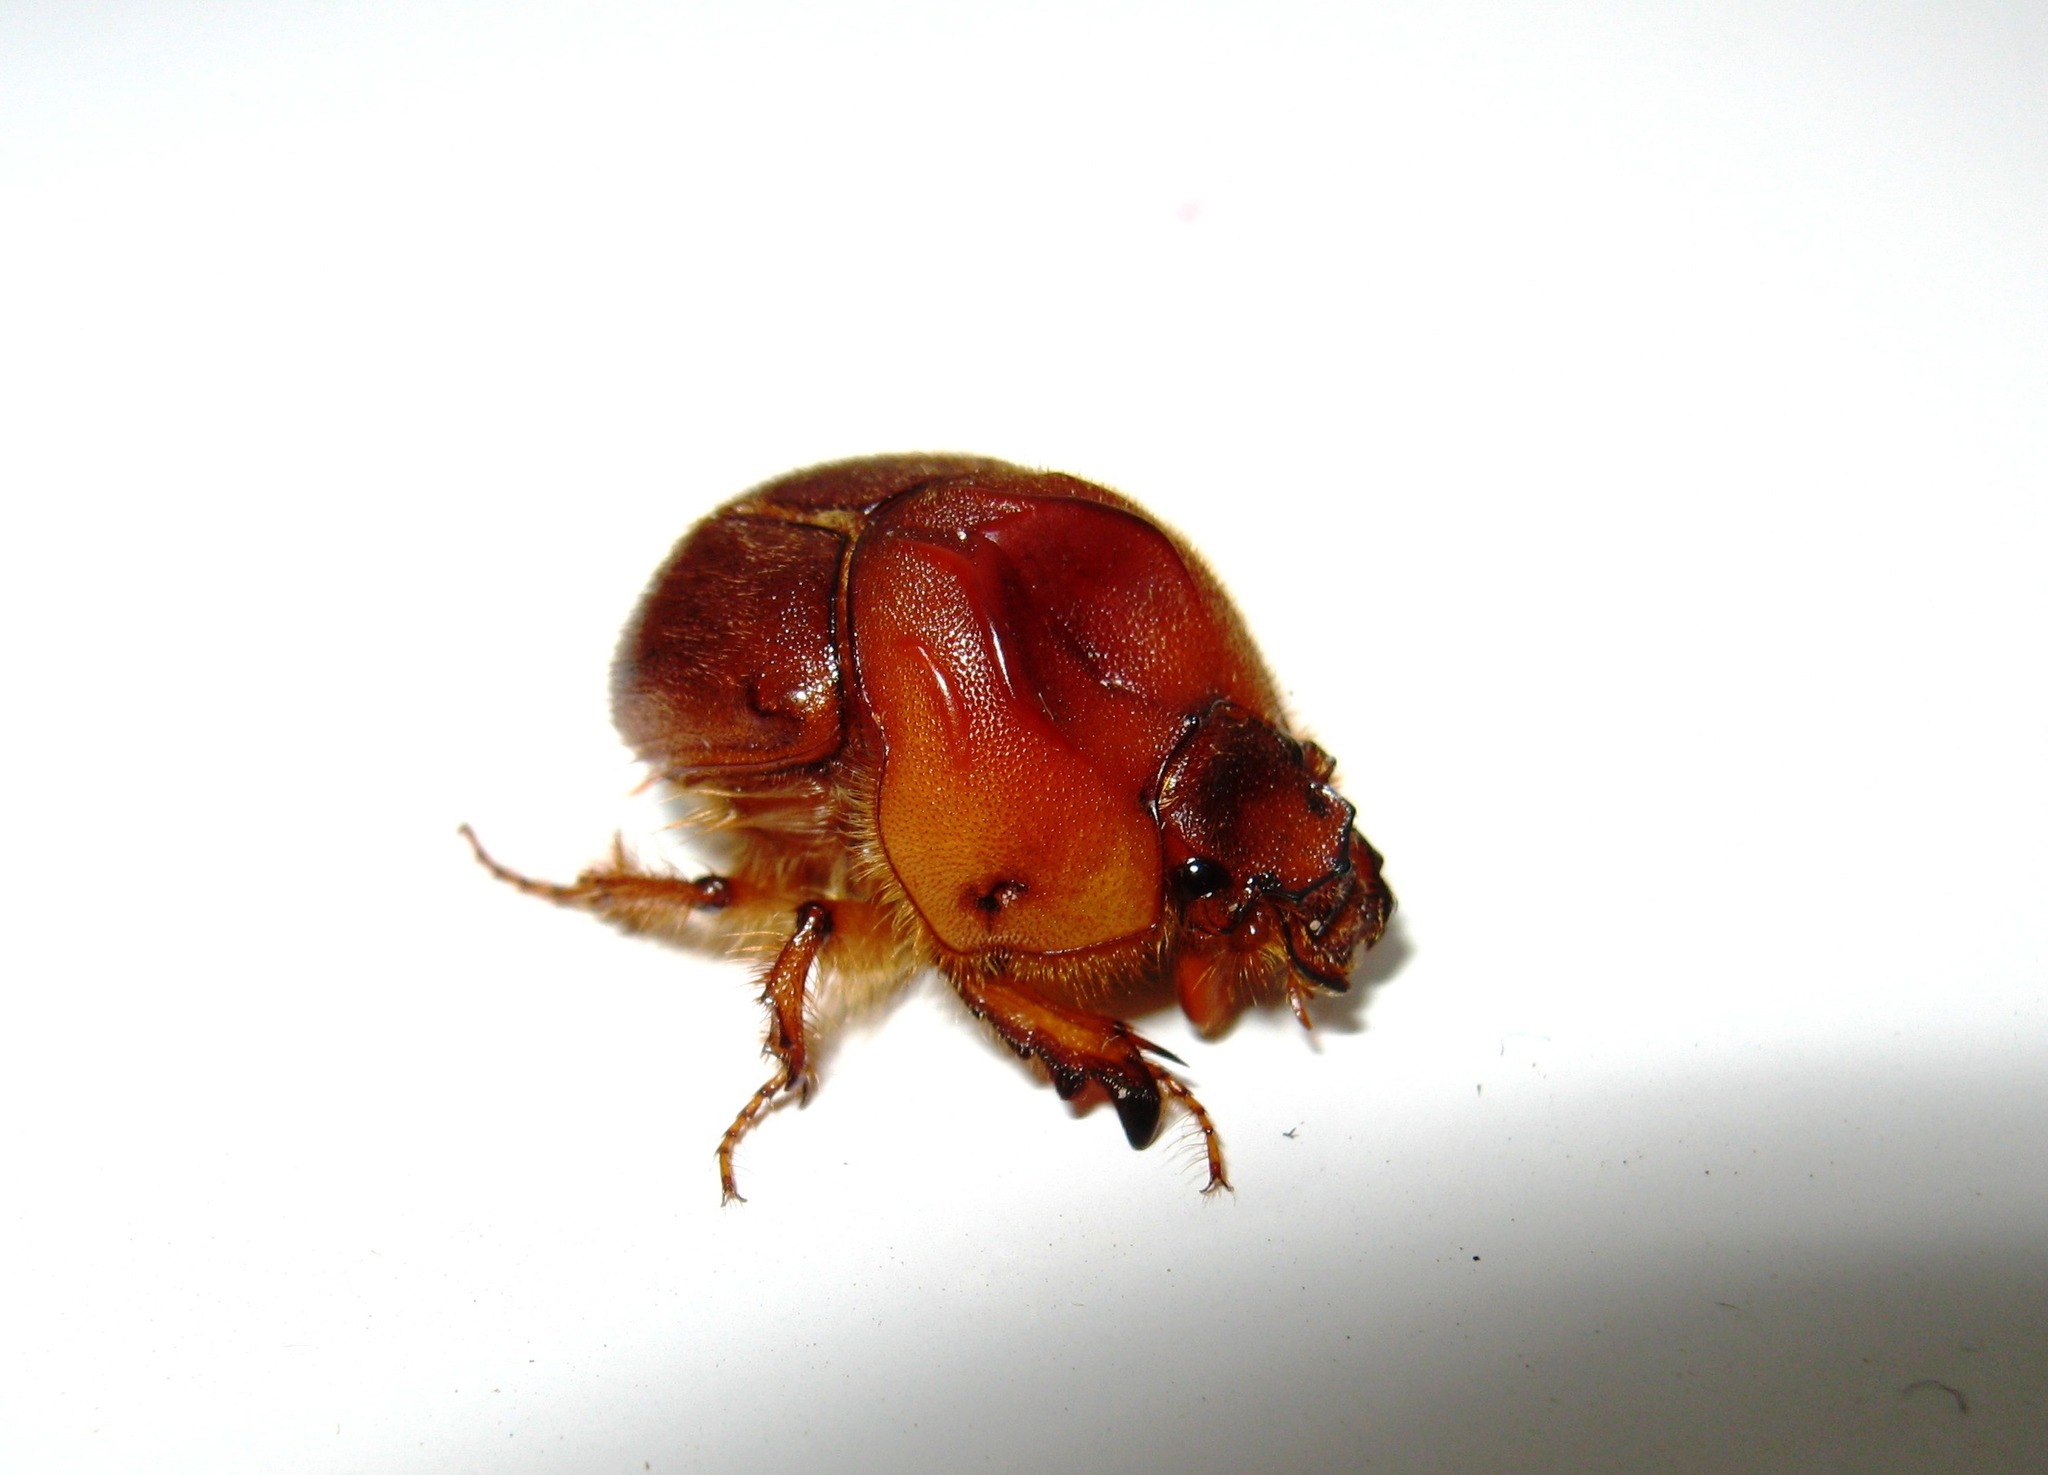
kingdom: Animalia
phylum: Arthropoda
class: Insecta
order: Coleoptera
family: Geotrupidae
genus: Neoathyreus
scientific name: Neoathyreus excavatus
